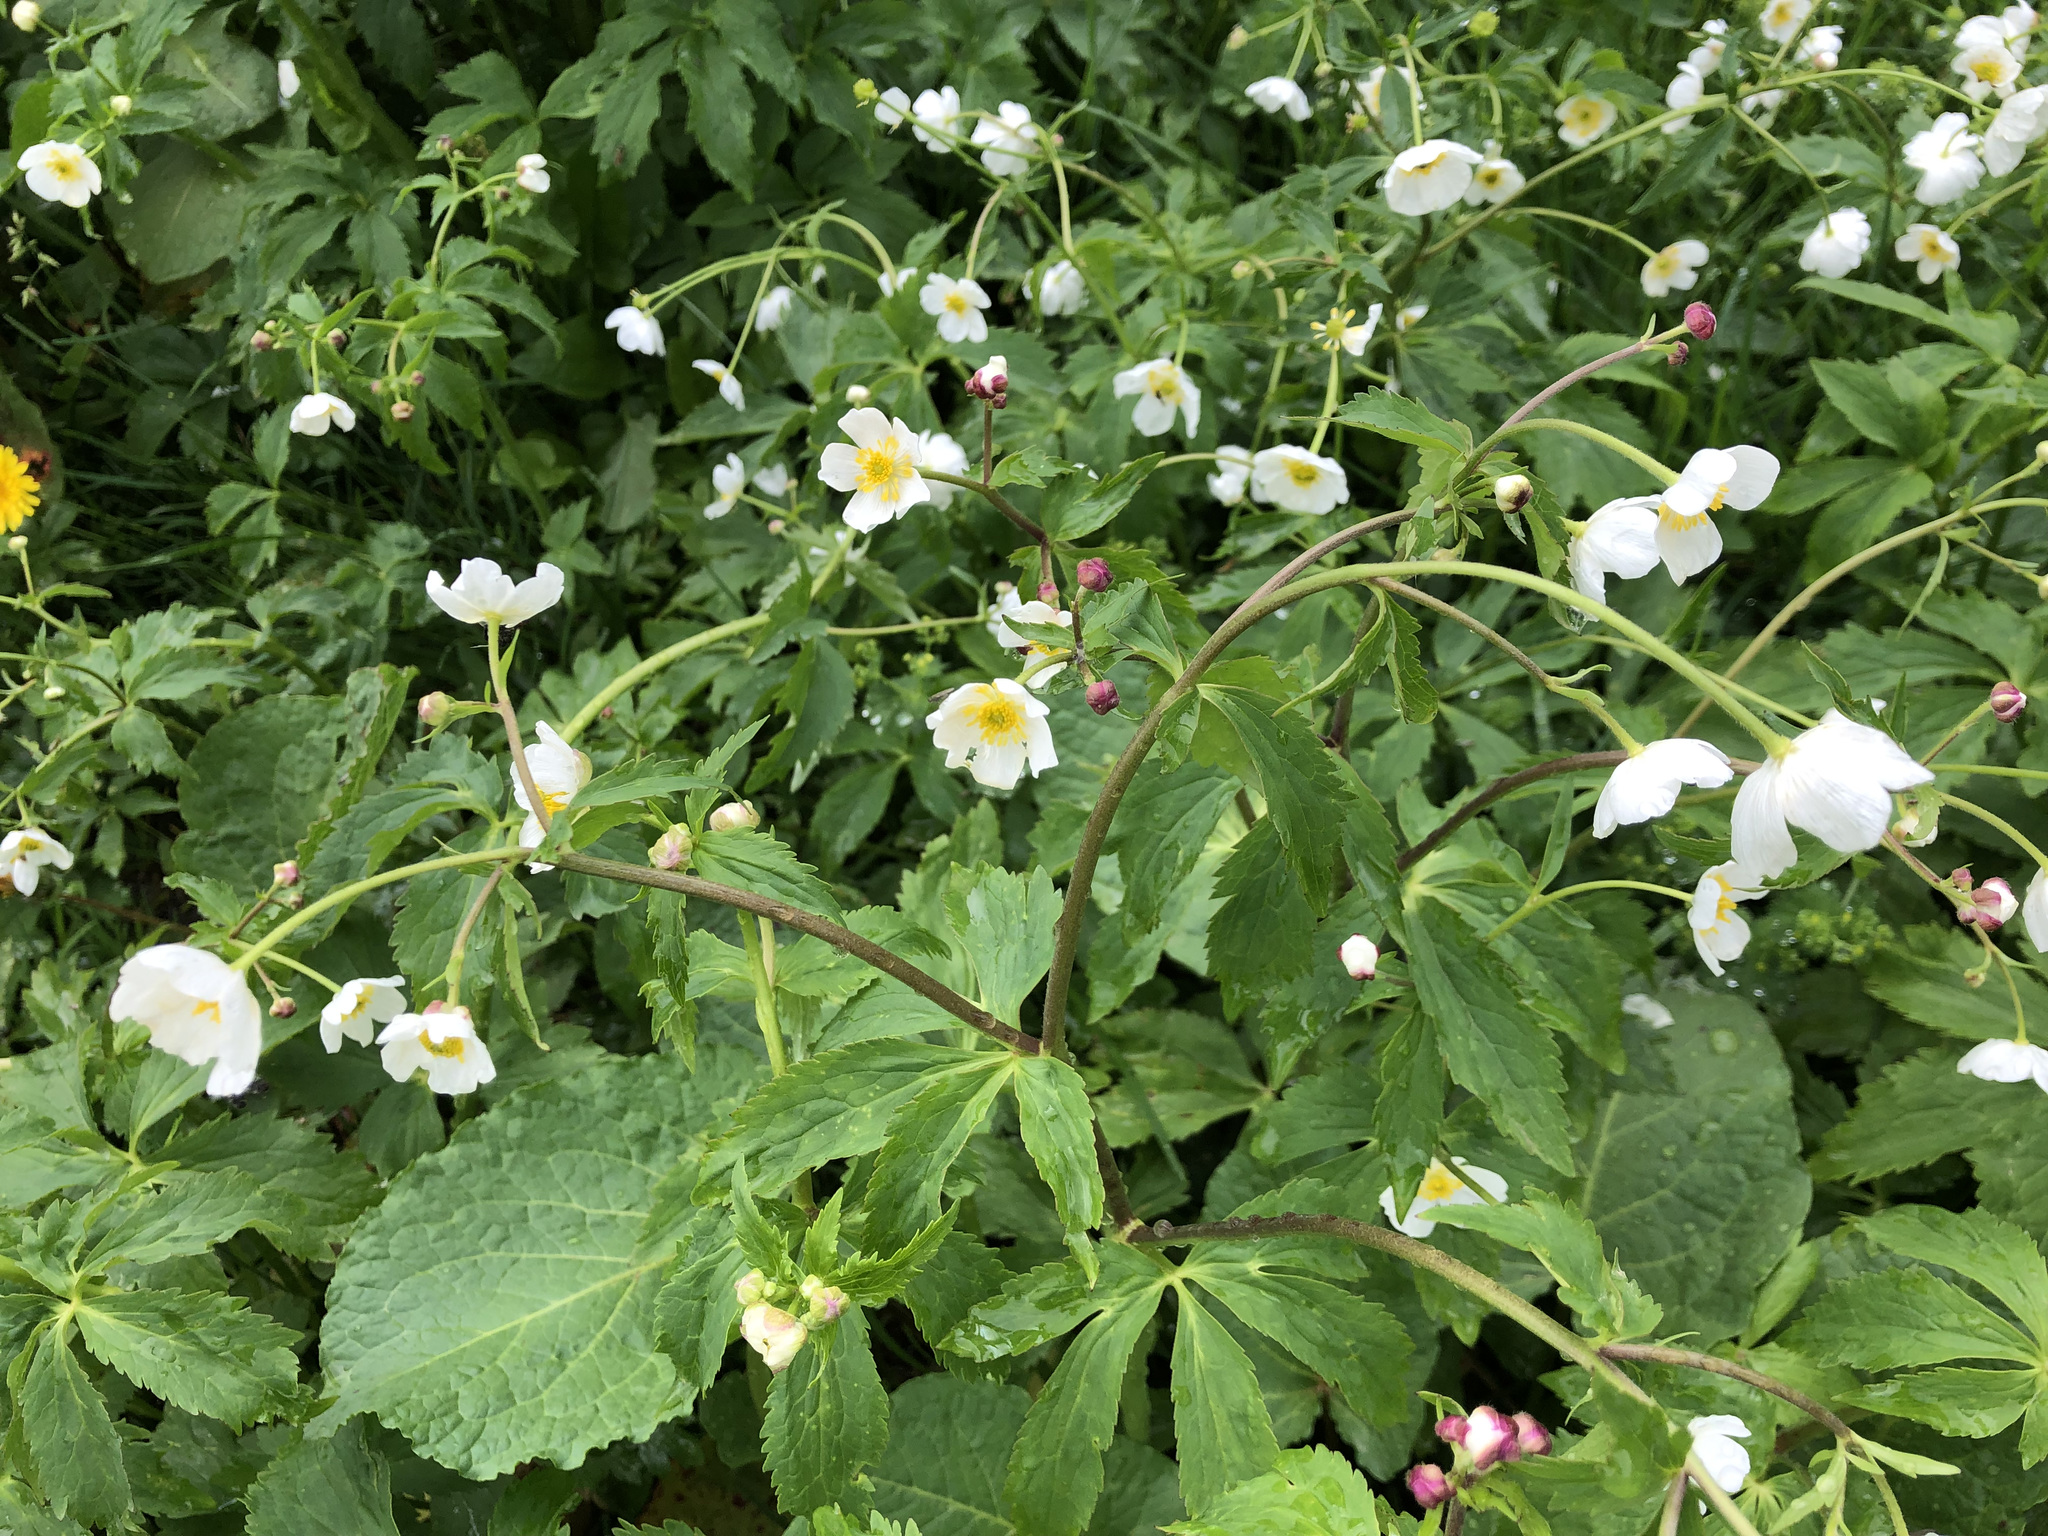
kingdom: Plantae
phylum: Tracheophyta
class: Magnoliopsida
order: Ranunculales
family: Ranunculaceae
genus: Ranunculus
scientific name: Ranunculus aconitifolius
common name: Aconite-leaved buttercup
